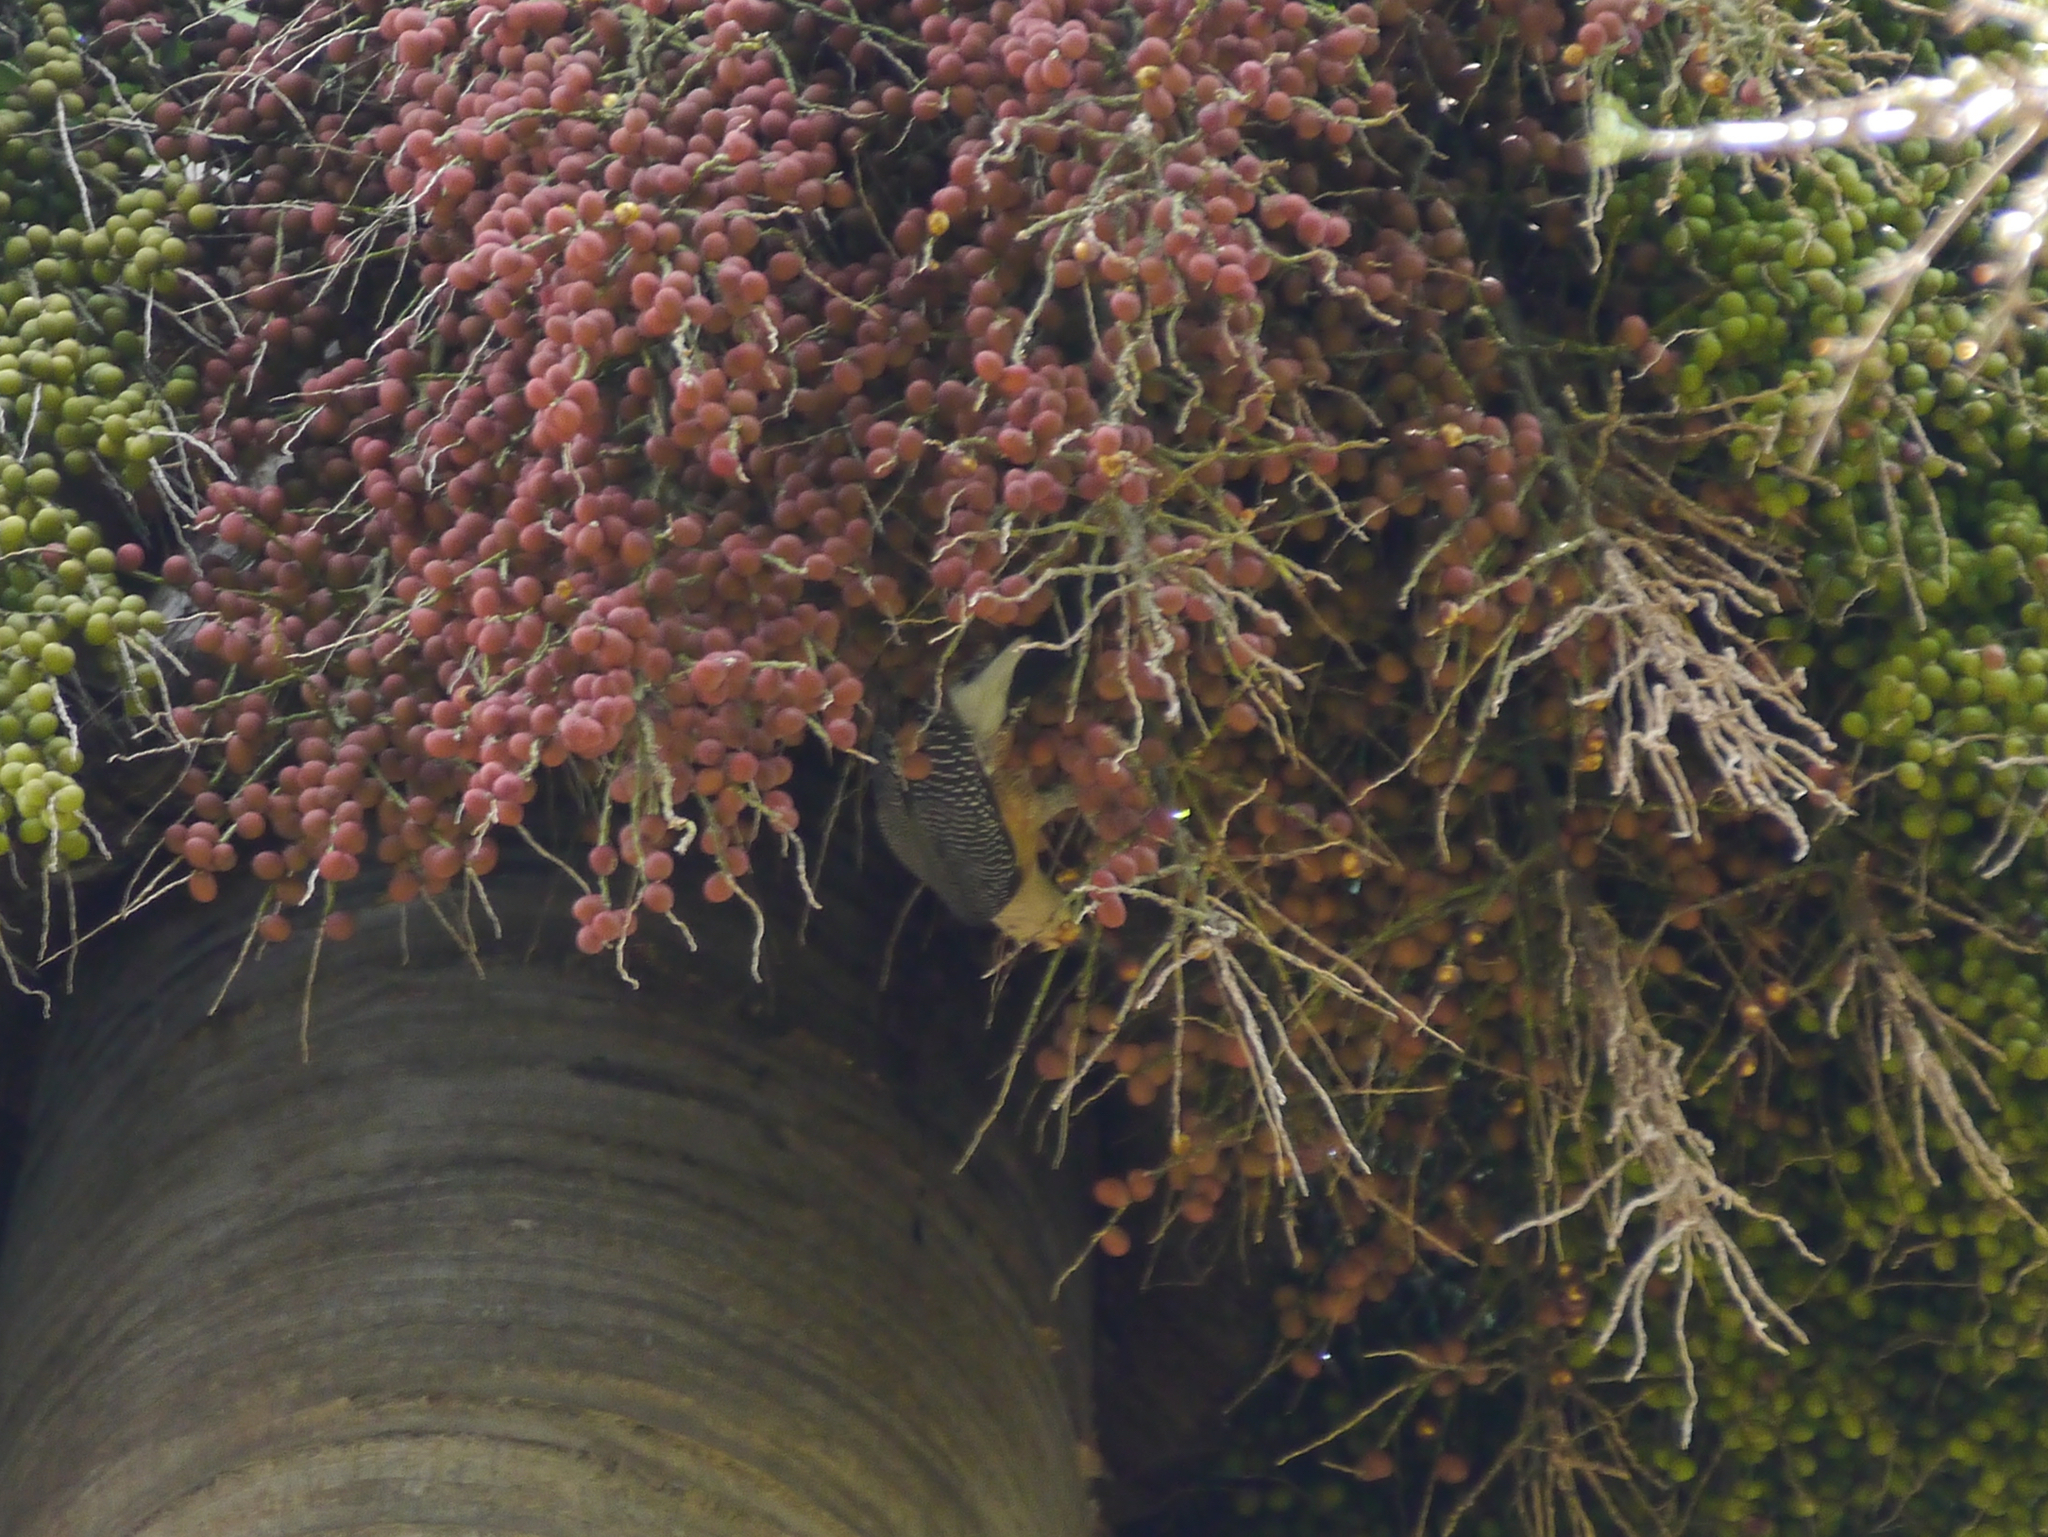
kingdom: Animalia
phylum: Chordata
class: Aves
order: Piciformes
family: Picidae
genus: Melanerpes
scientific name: Melanerpes santacruzi
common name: Velasquez's woodpecker
